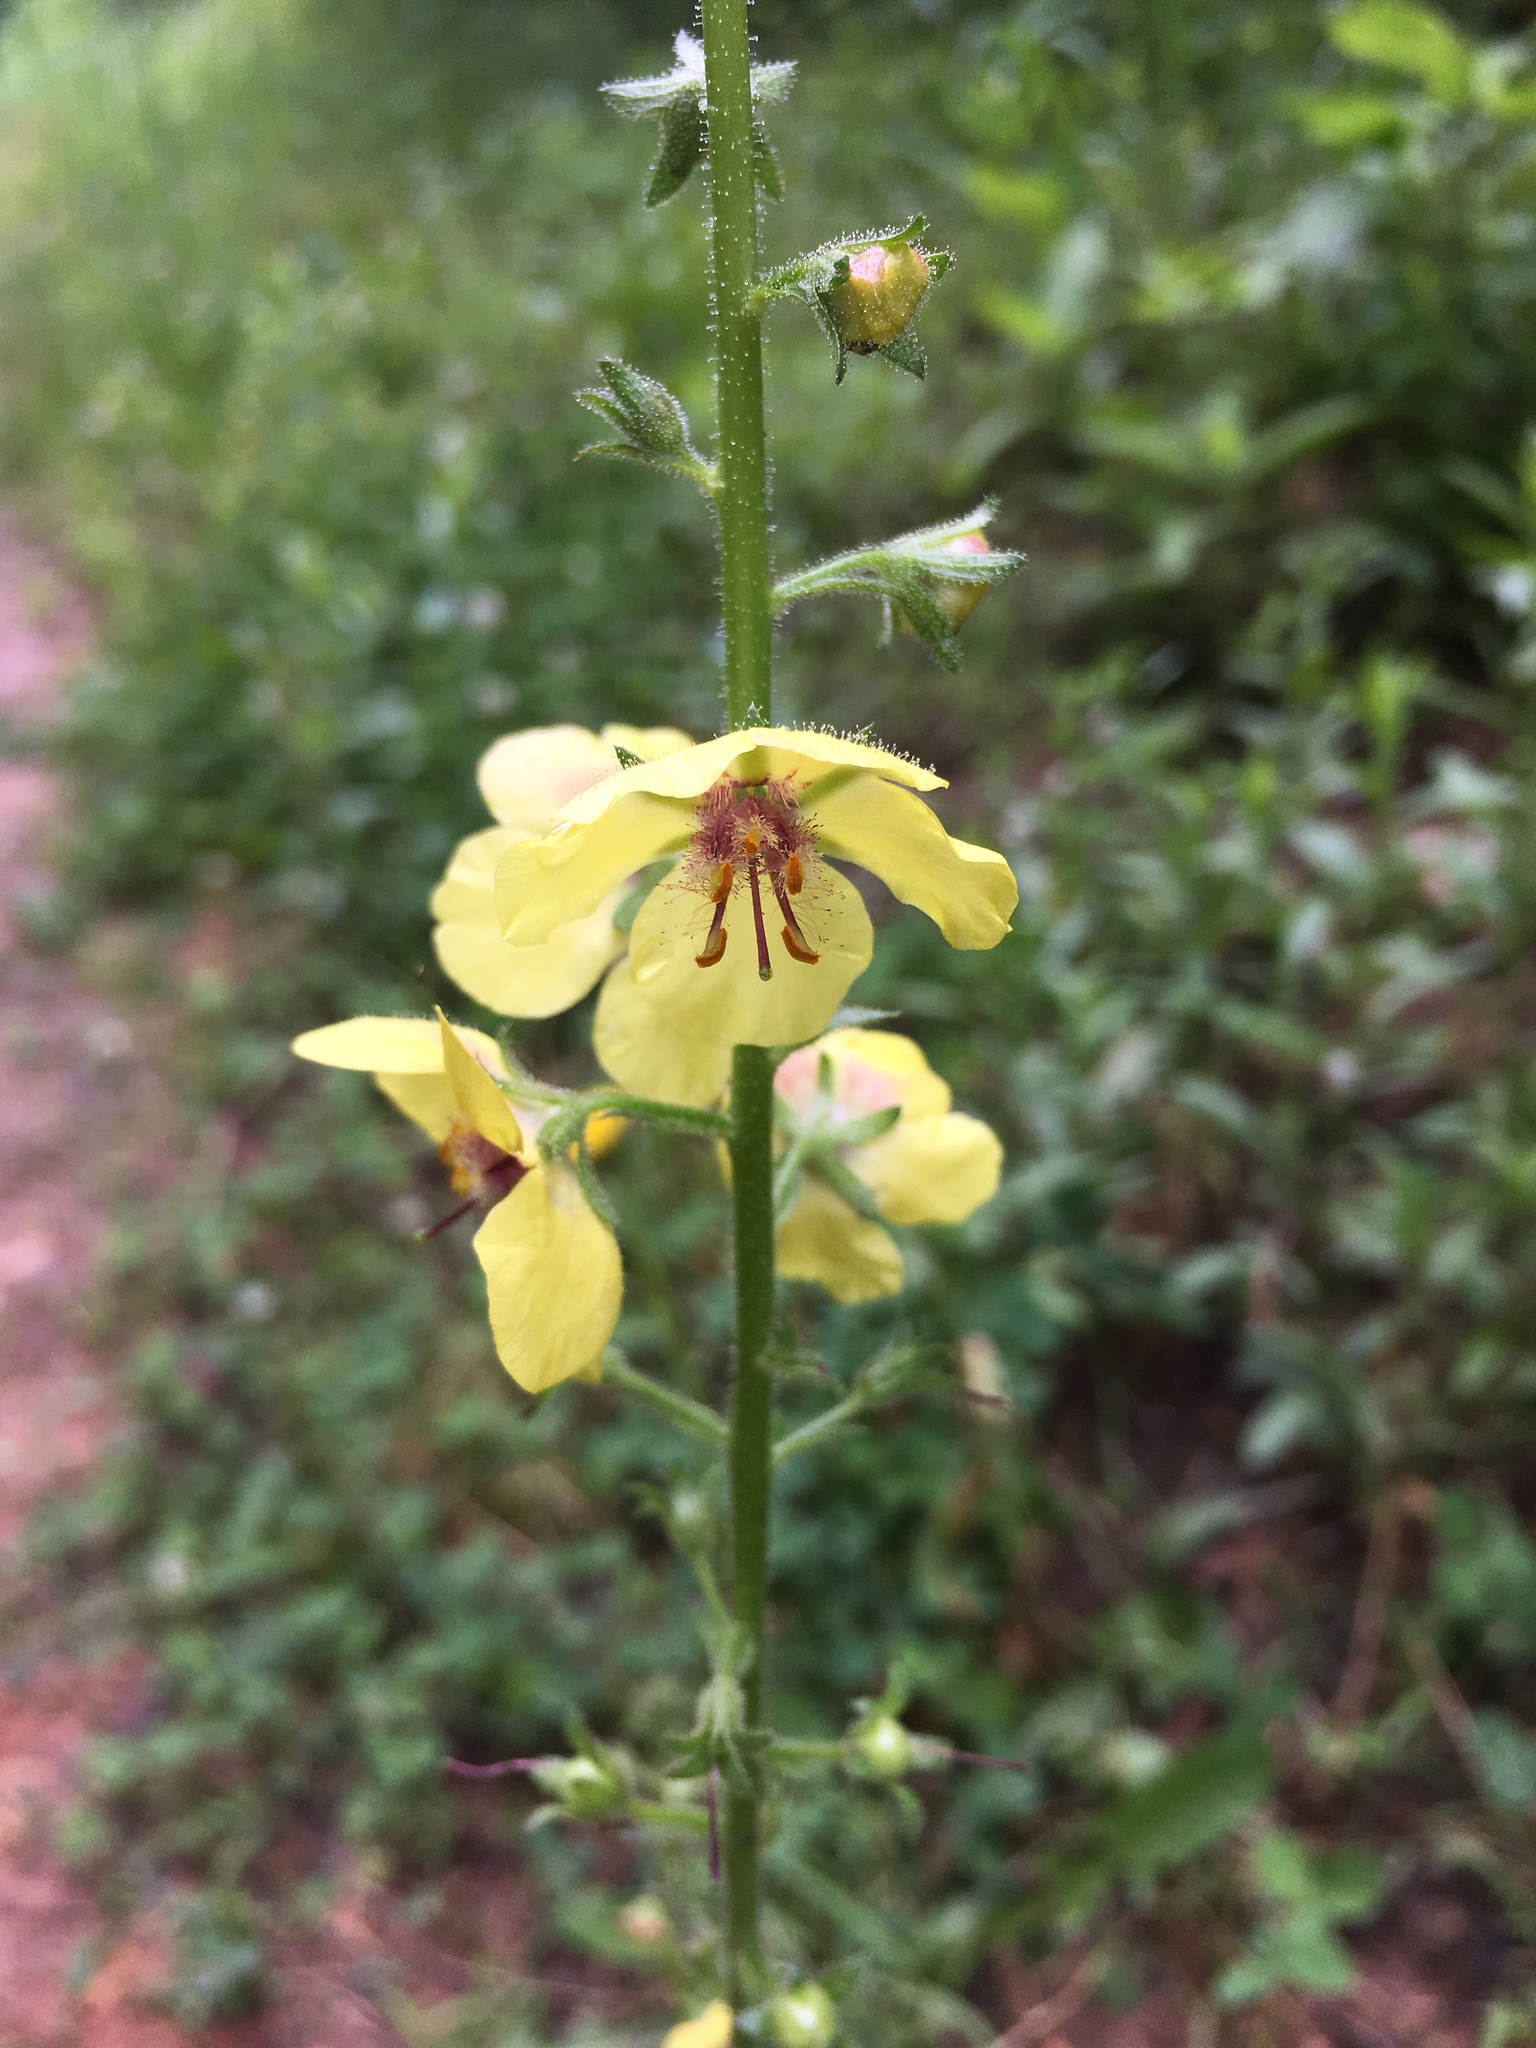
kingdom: Plantae
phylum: Tracheophyta
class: Magnoliopsida
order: Lamiales
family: Scrophulariaceae
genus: Verbascum
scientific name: Verbascum blattaria
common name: Moth mullein
